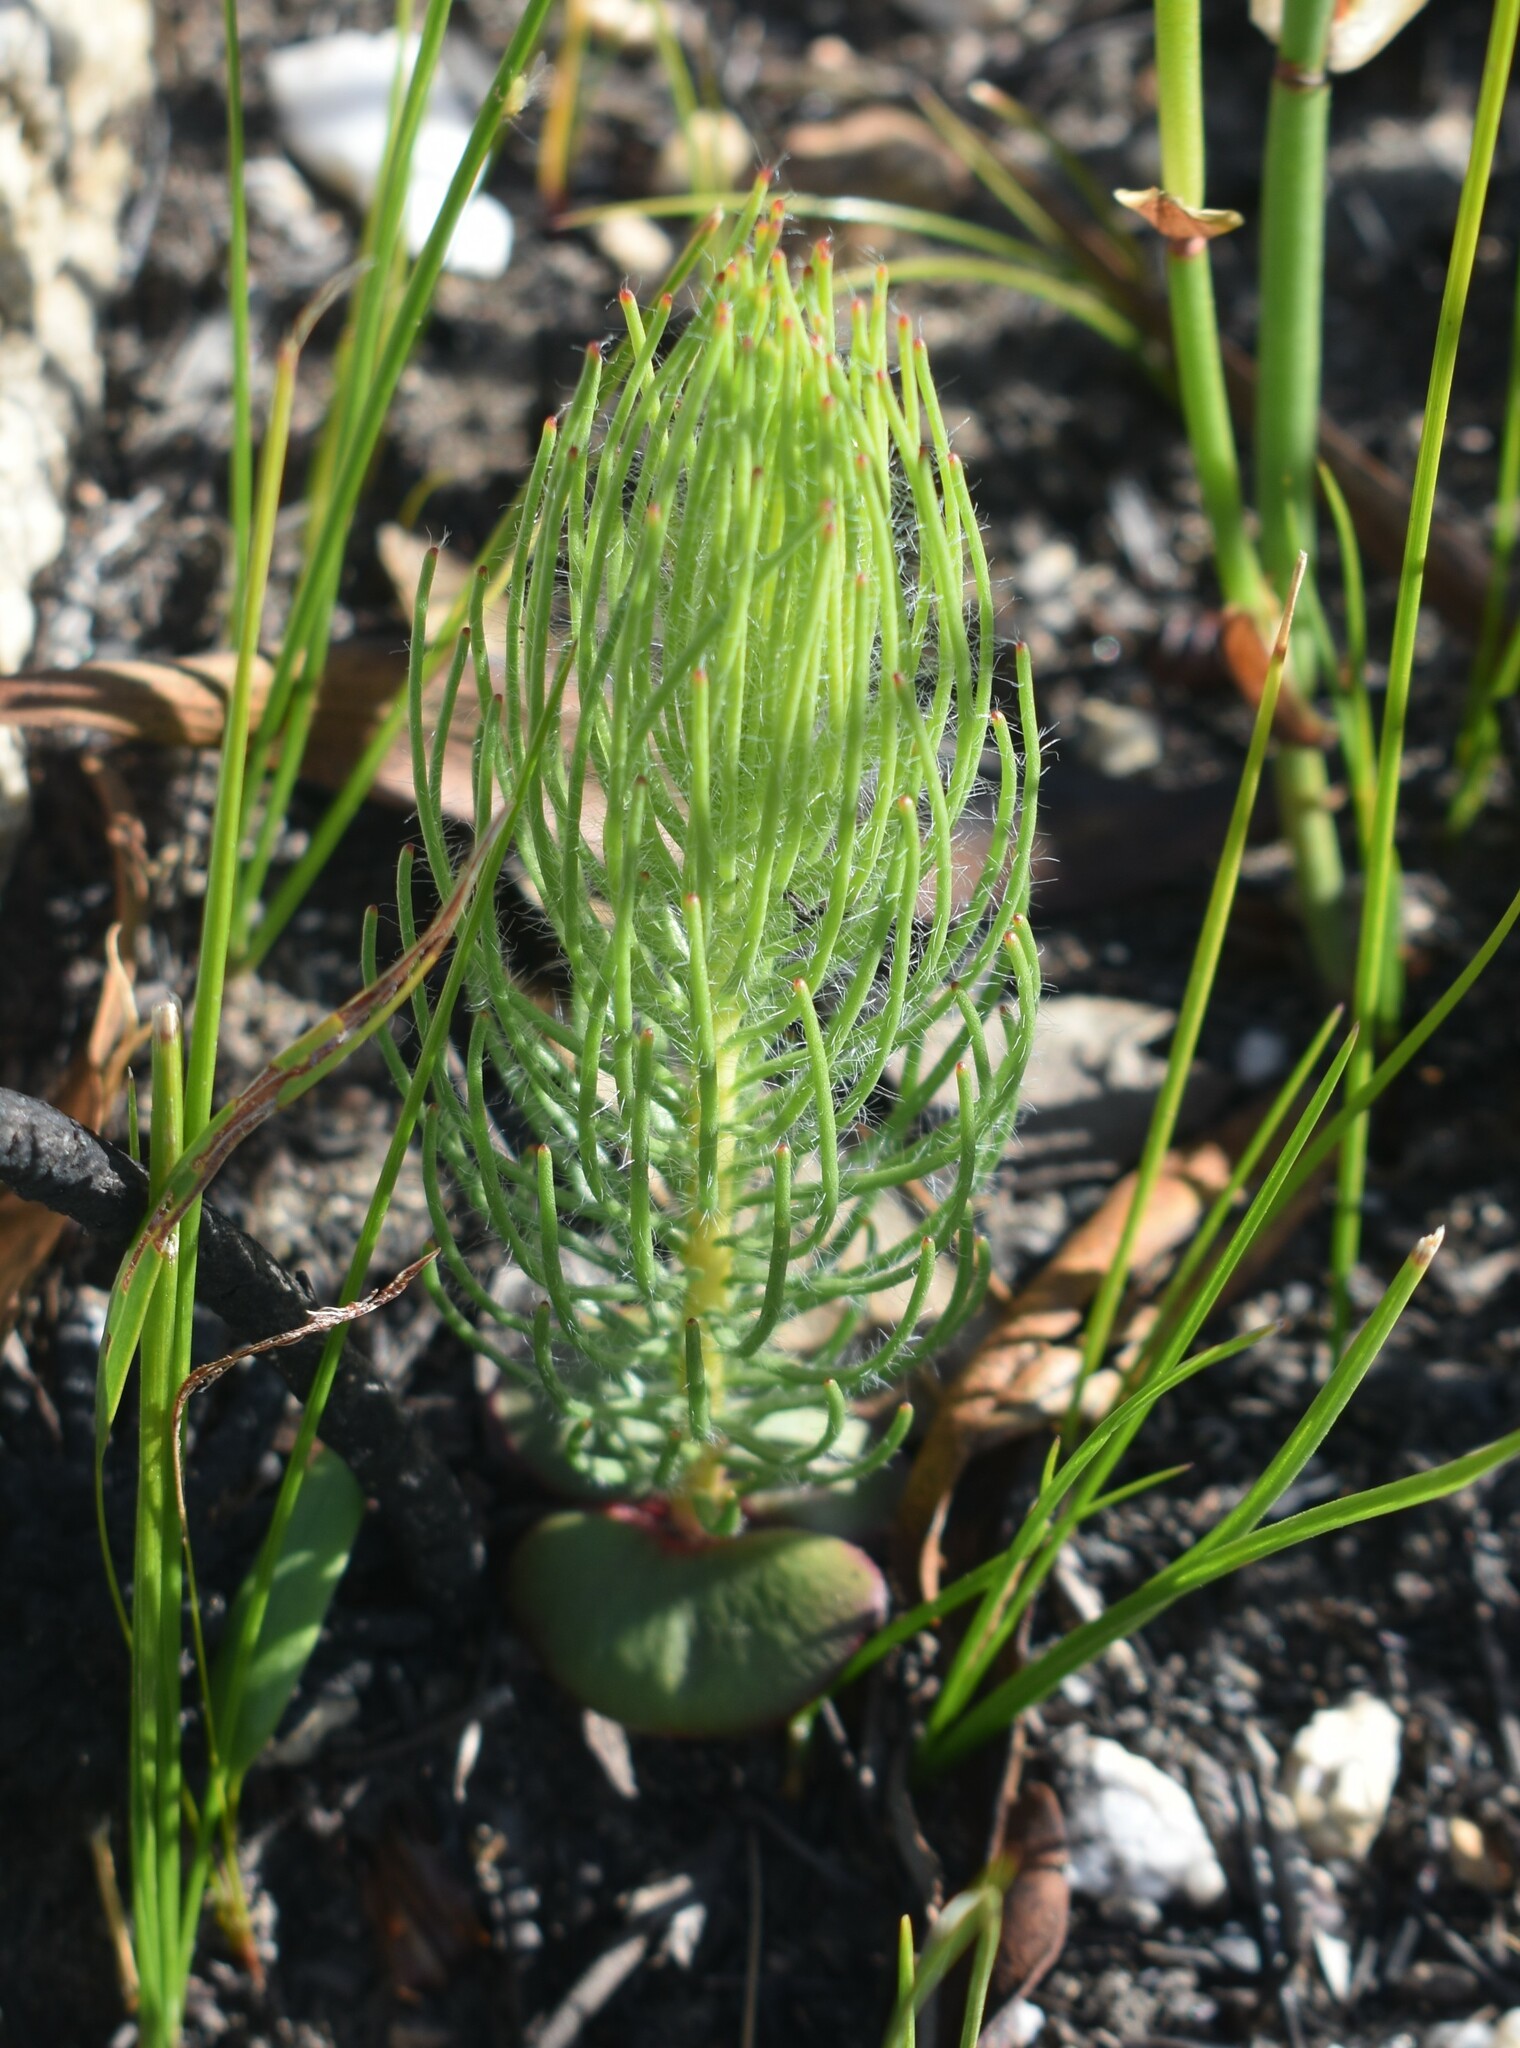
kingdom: Plantae
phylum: Tracheophyta
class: Magnoliopsida
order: Proteales
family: Proteaceae
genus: Leucadendron
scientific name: Leucadendron platyspermum
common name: Plate-seed conebush
